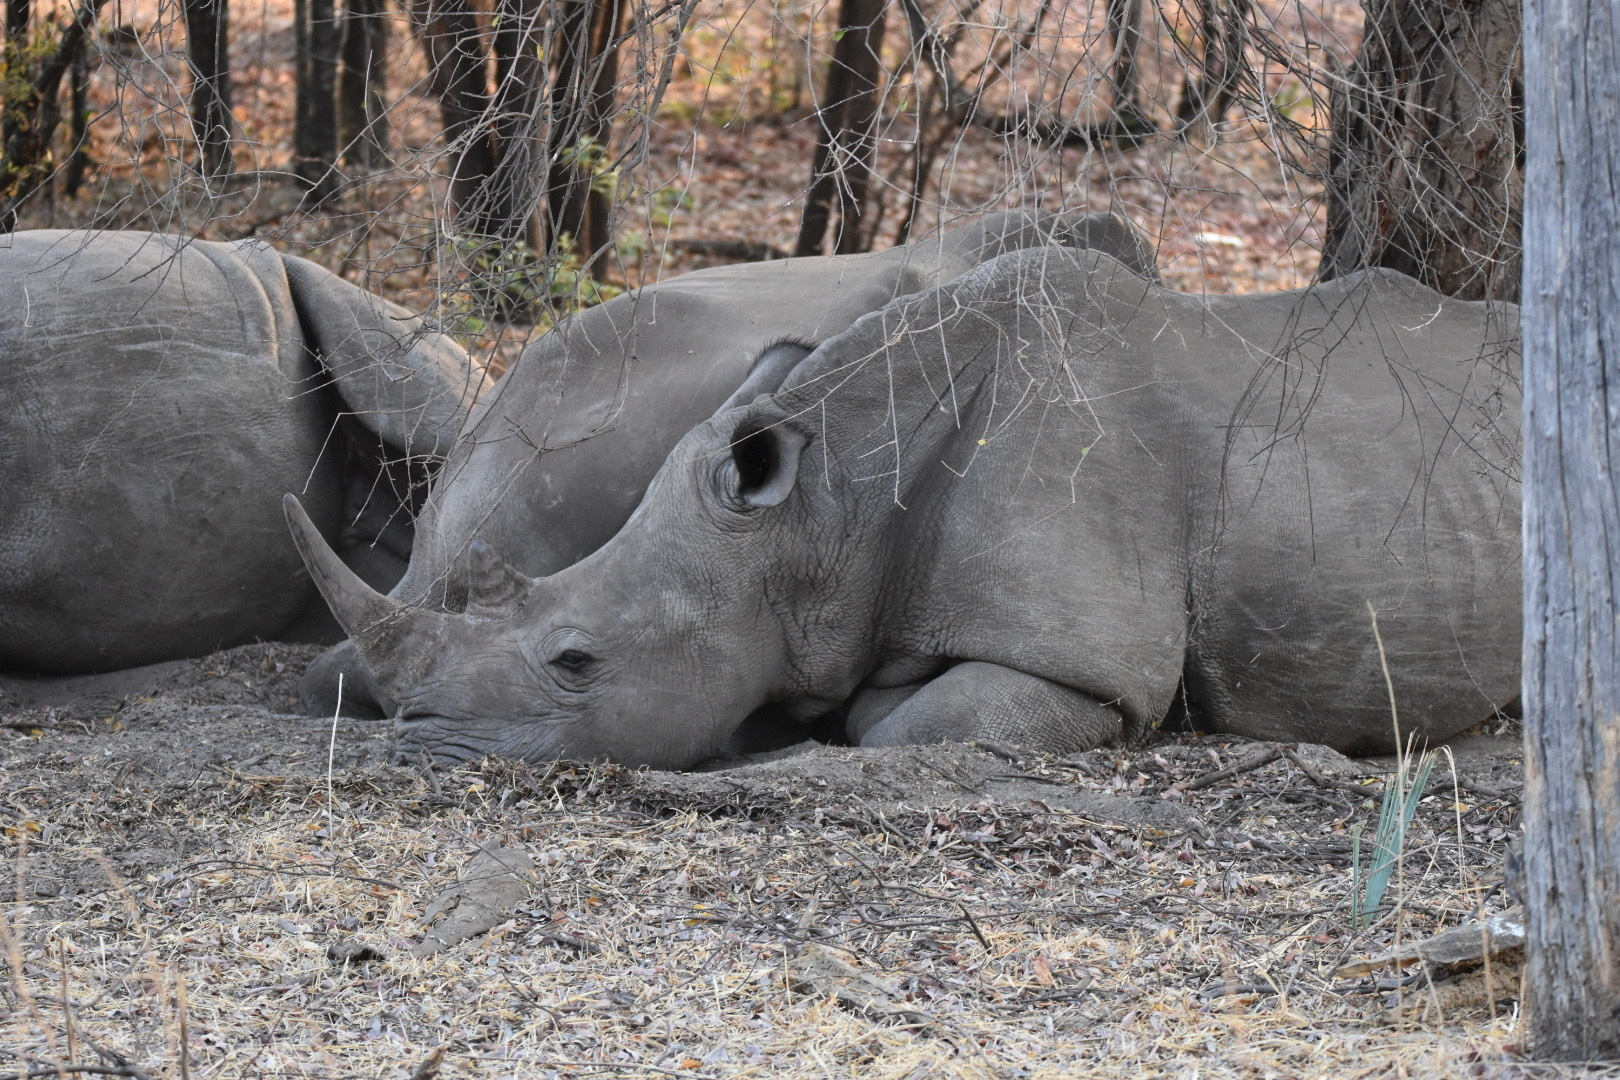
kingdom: Animalia
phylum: Chordata
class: Mammalia
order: Perissodactyla
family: Rhinocerotidae
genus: Ceratotherium
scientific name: Ceratotherium simum
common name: White rhinoceros
